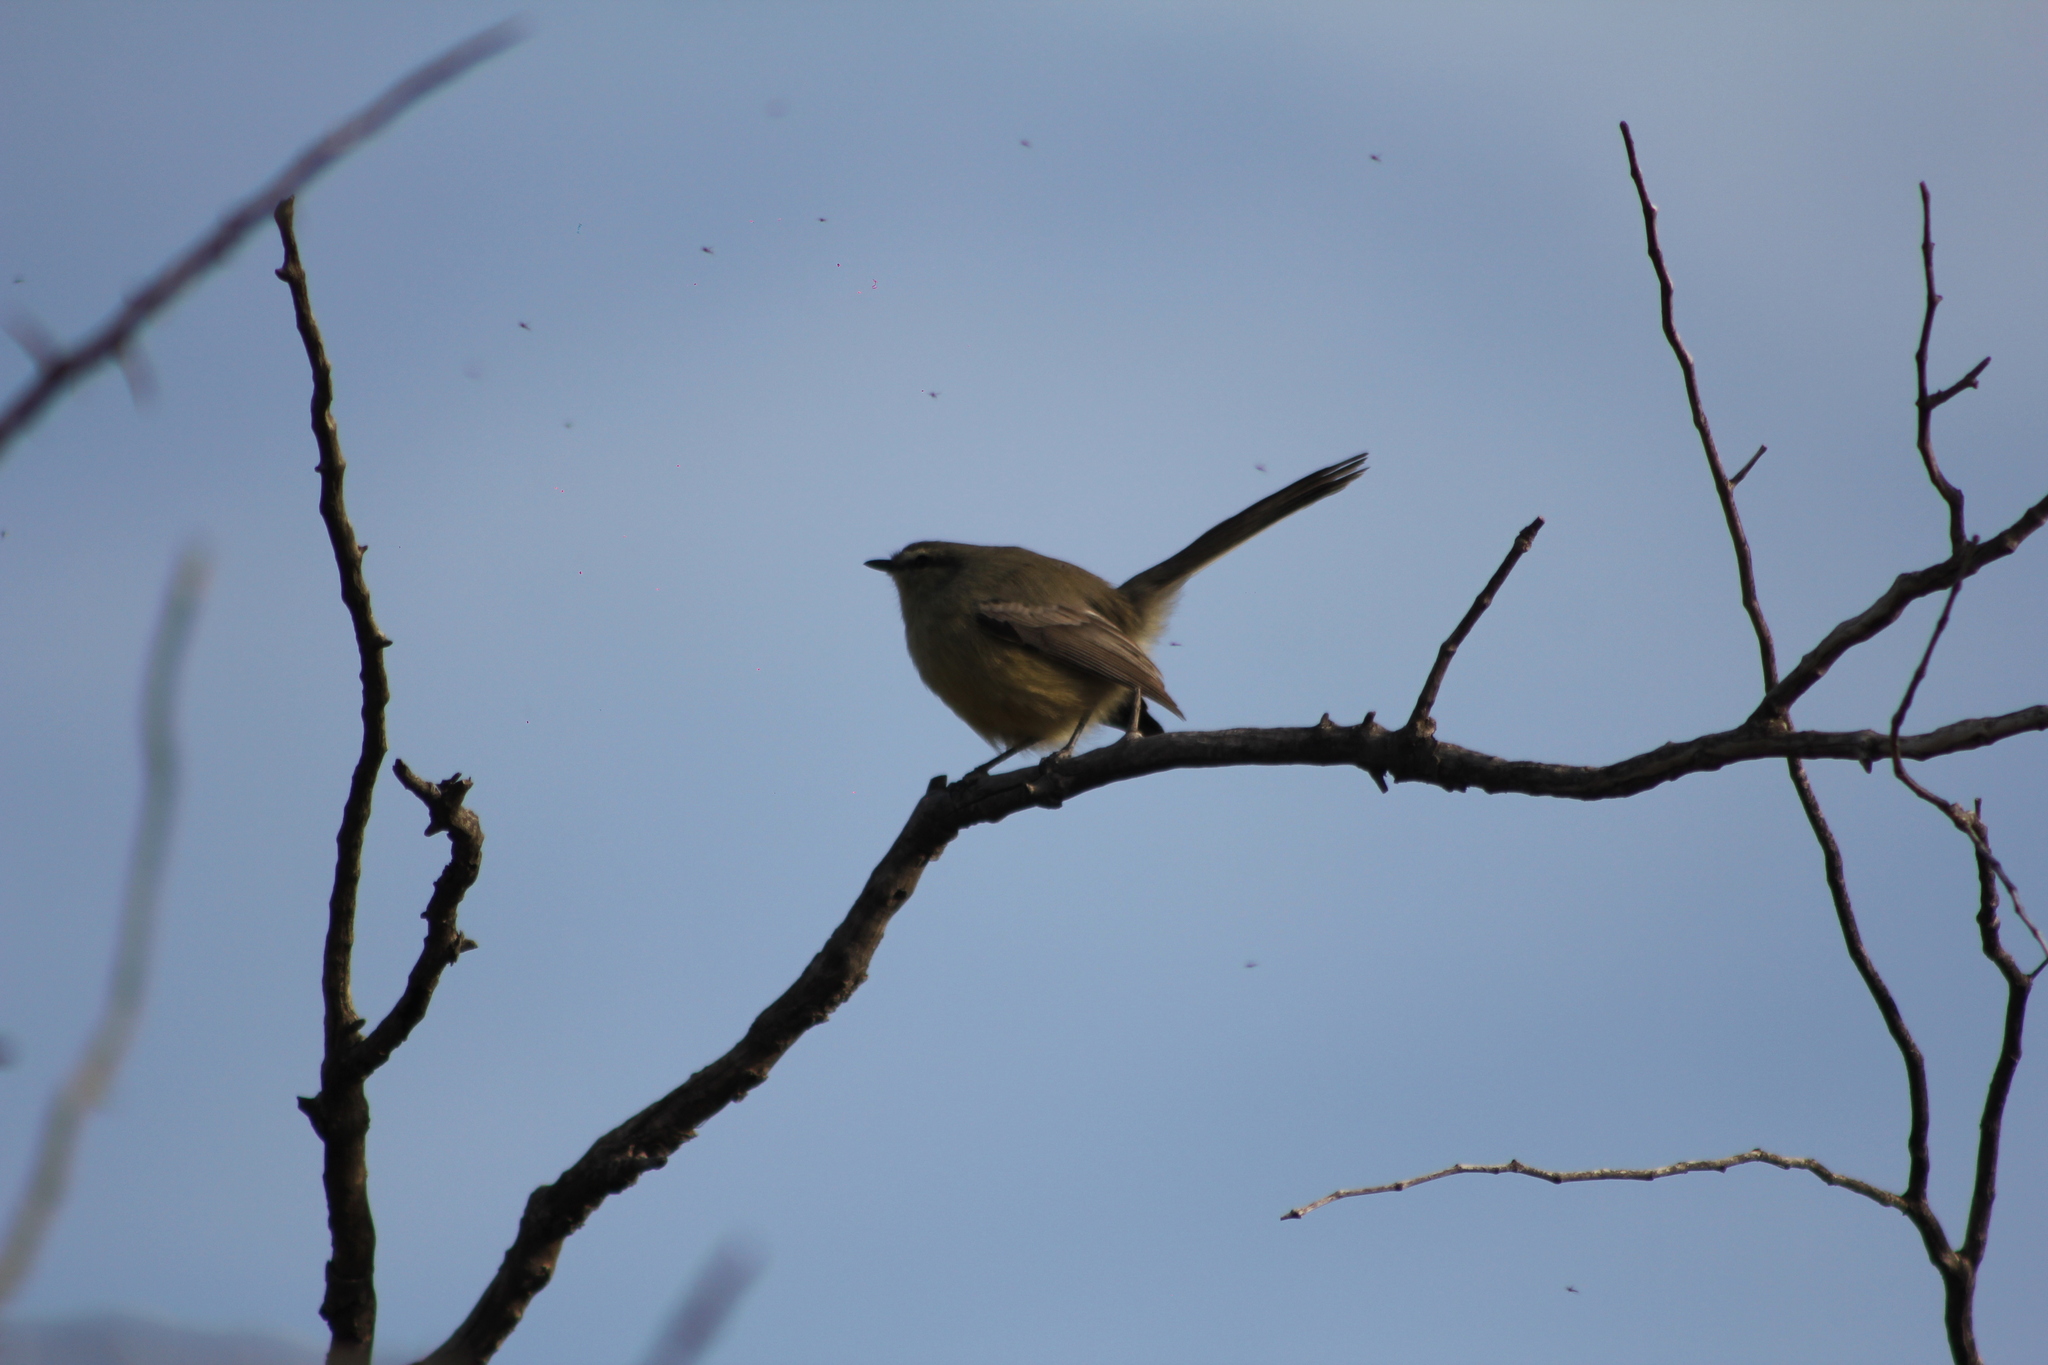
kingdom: Animalia
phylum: Chordata
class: Aves
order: Passeriformes
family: Tyrannidae
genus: Stigmatura
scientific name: Stigmatura budytoides
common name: Greater wagtail-tyrant
